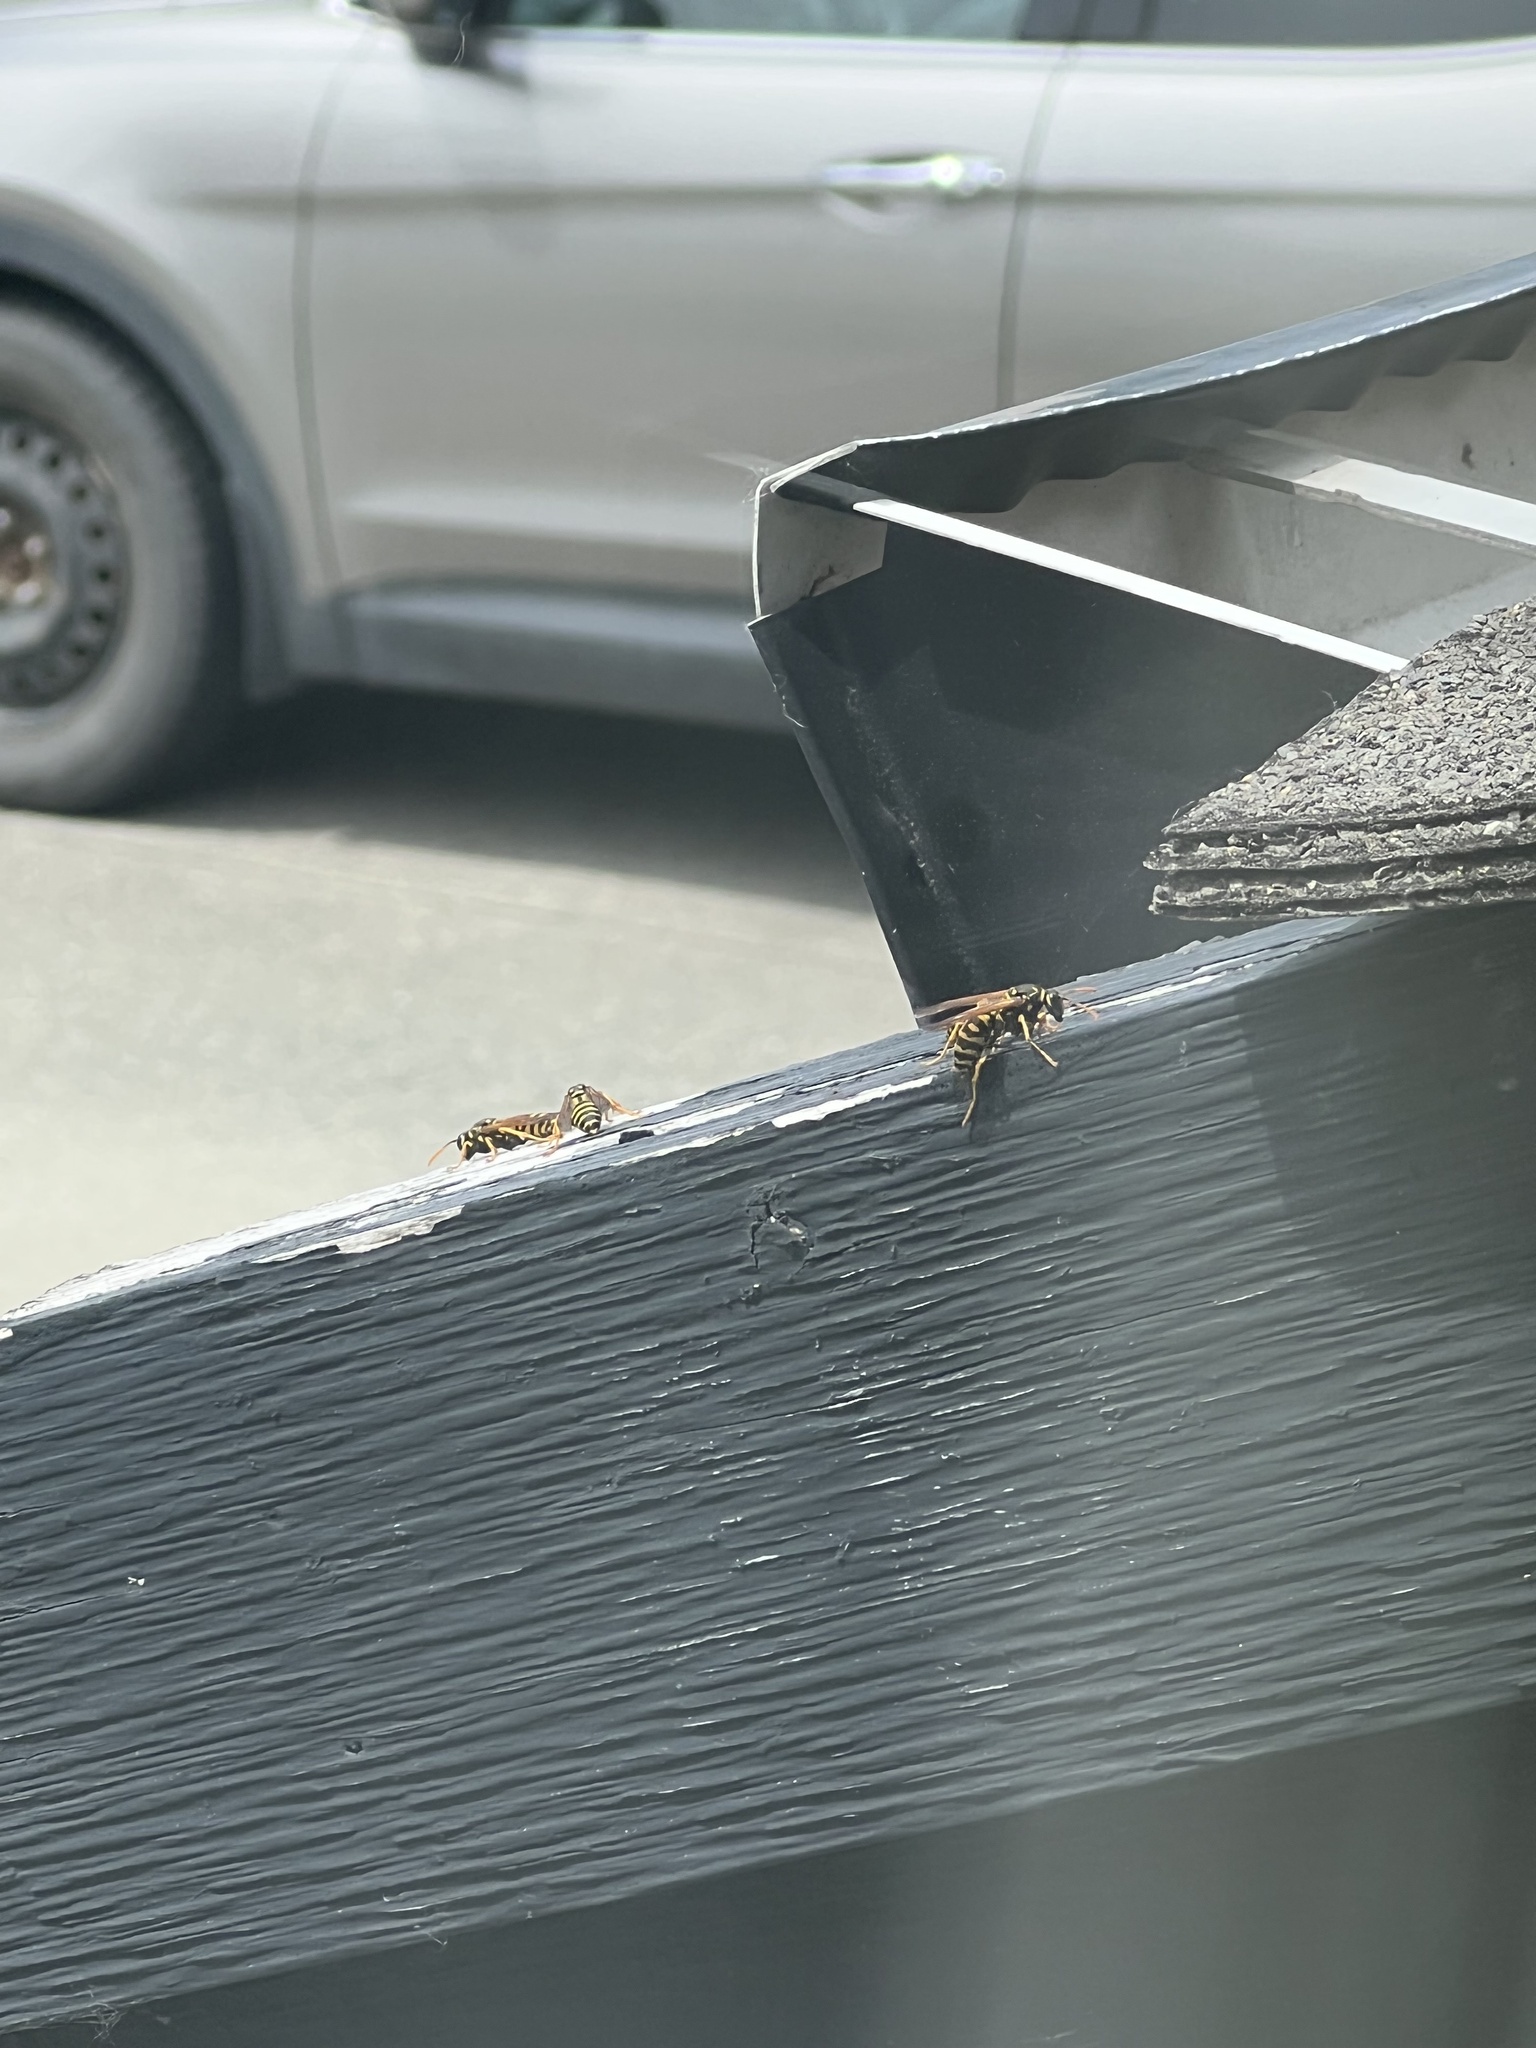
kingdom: Animalia
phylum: Arthropoda
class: Insecta
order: Hymenoptera
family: Eumenidae
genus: Polistes
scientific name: Polistes dominula
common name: Paper wasp
